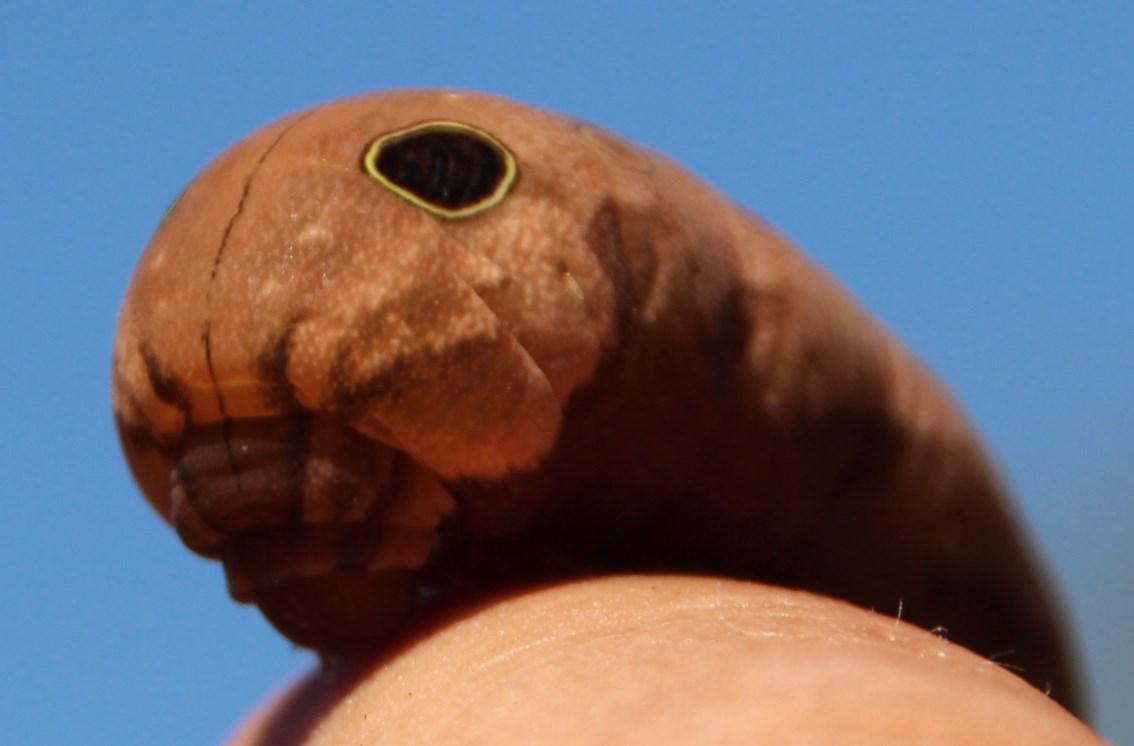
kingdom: Animalia
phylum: Arthropoda
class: Insecta
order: Lepidoptera
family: Sphingidae
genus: Hippotion
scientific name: Hippotion eson
